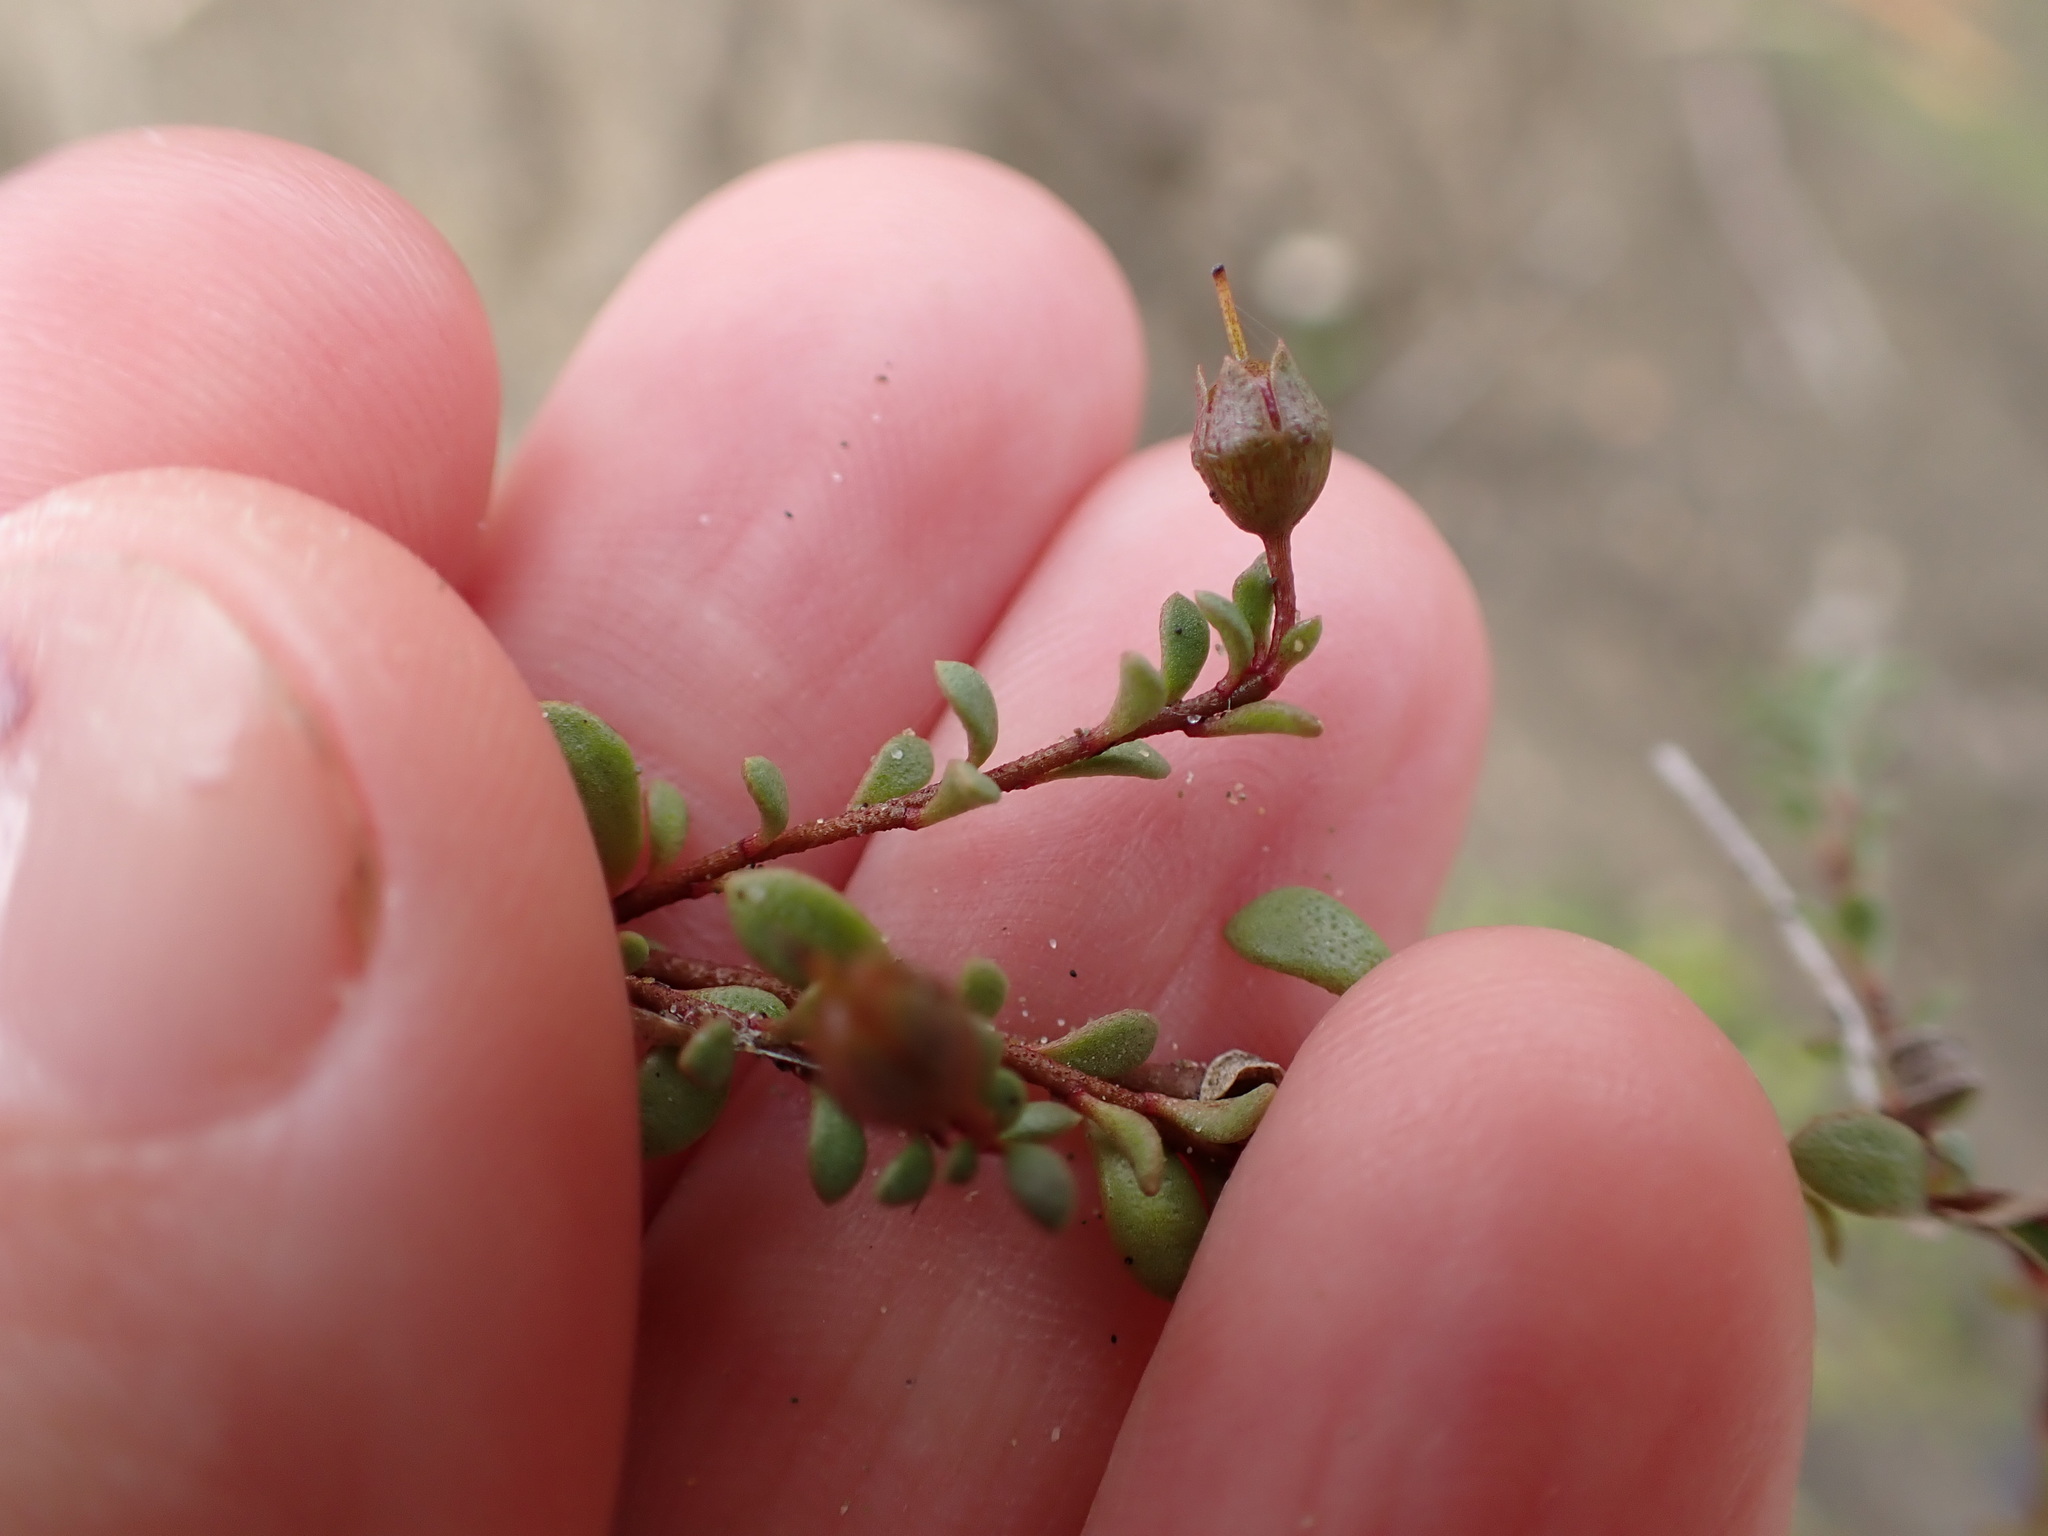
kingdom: Plantae
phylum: Tracheophyta
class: Magnoliopsida
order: Ericales
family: Primulaceae
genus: Samolus
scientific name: Samolus repens
